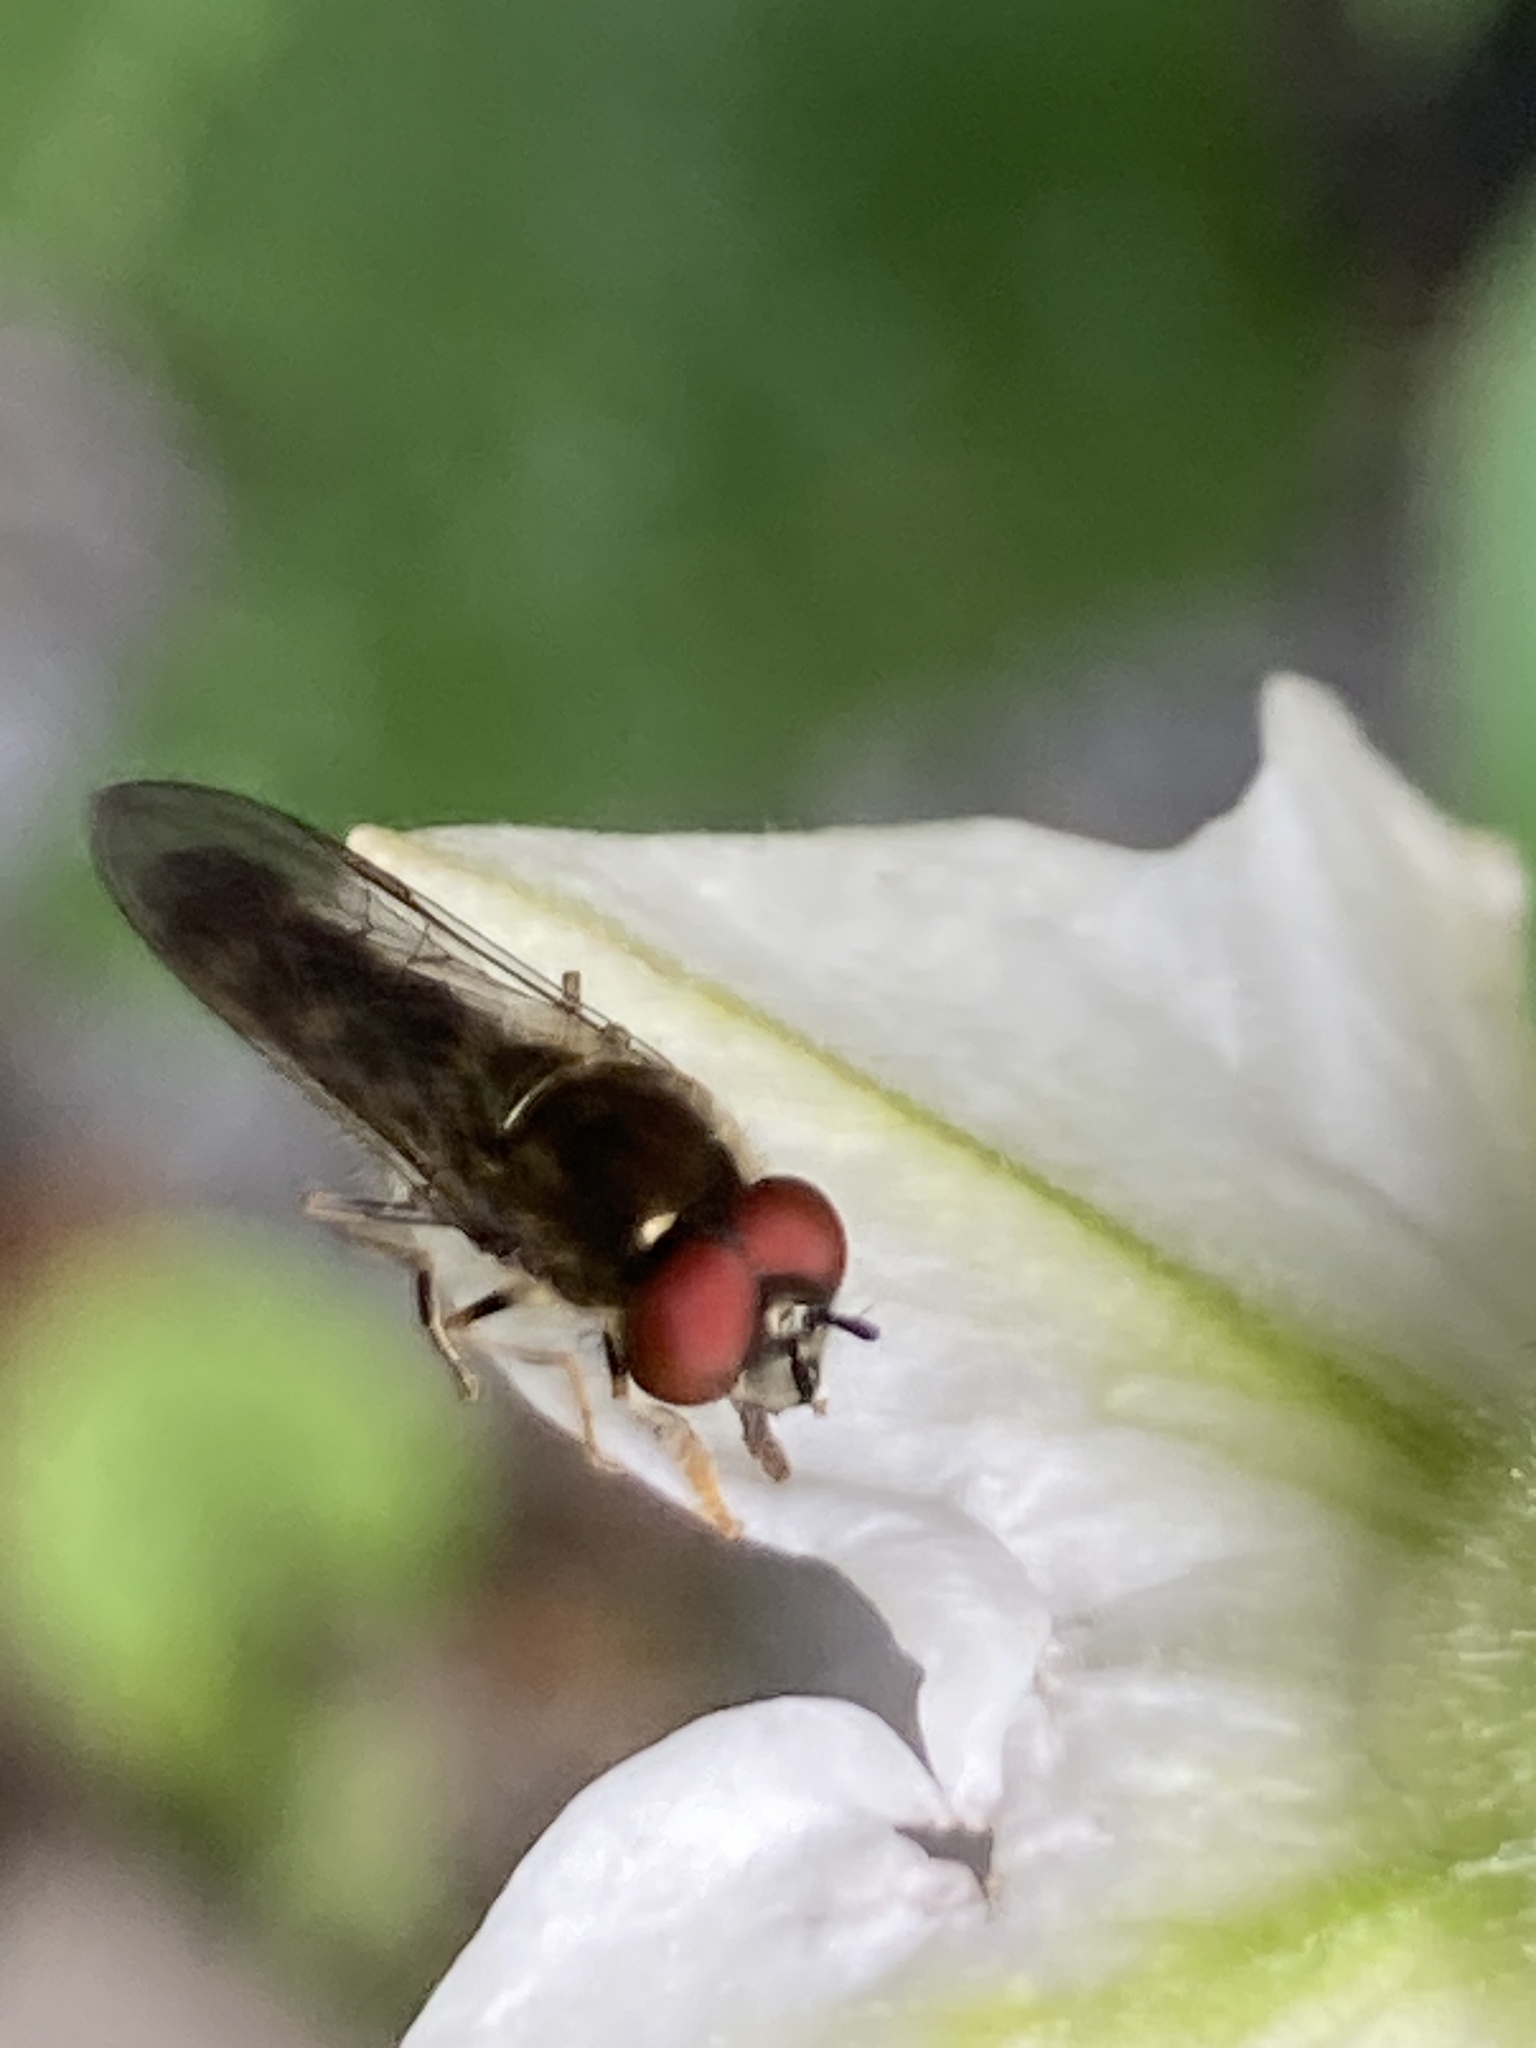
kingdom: Animalia
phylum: Arthropoda
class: Insecta
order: Diptera
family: Syrphidae
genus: Platycheirus
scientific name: Platycheirus albimanus
